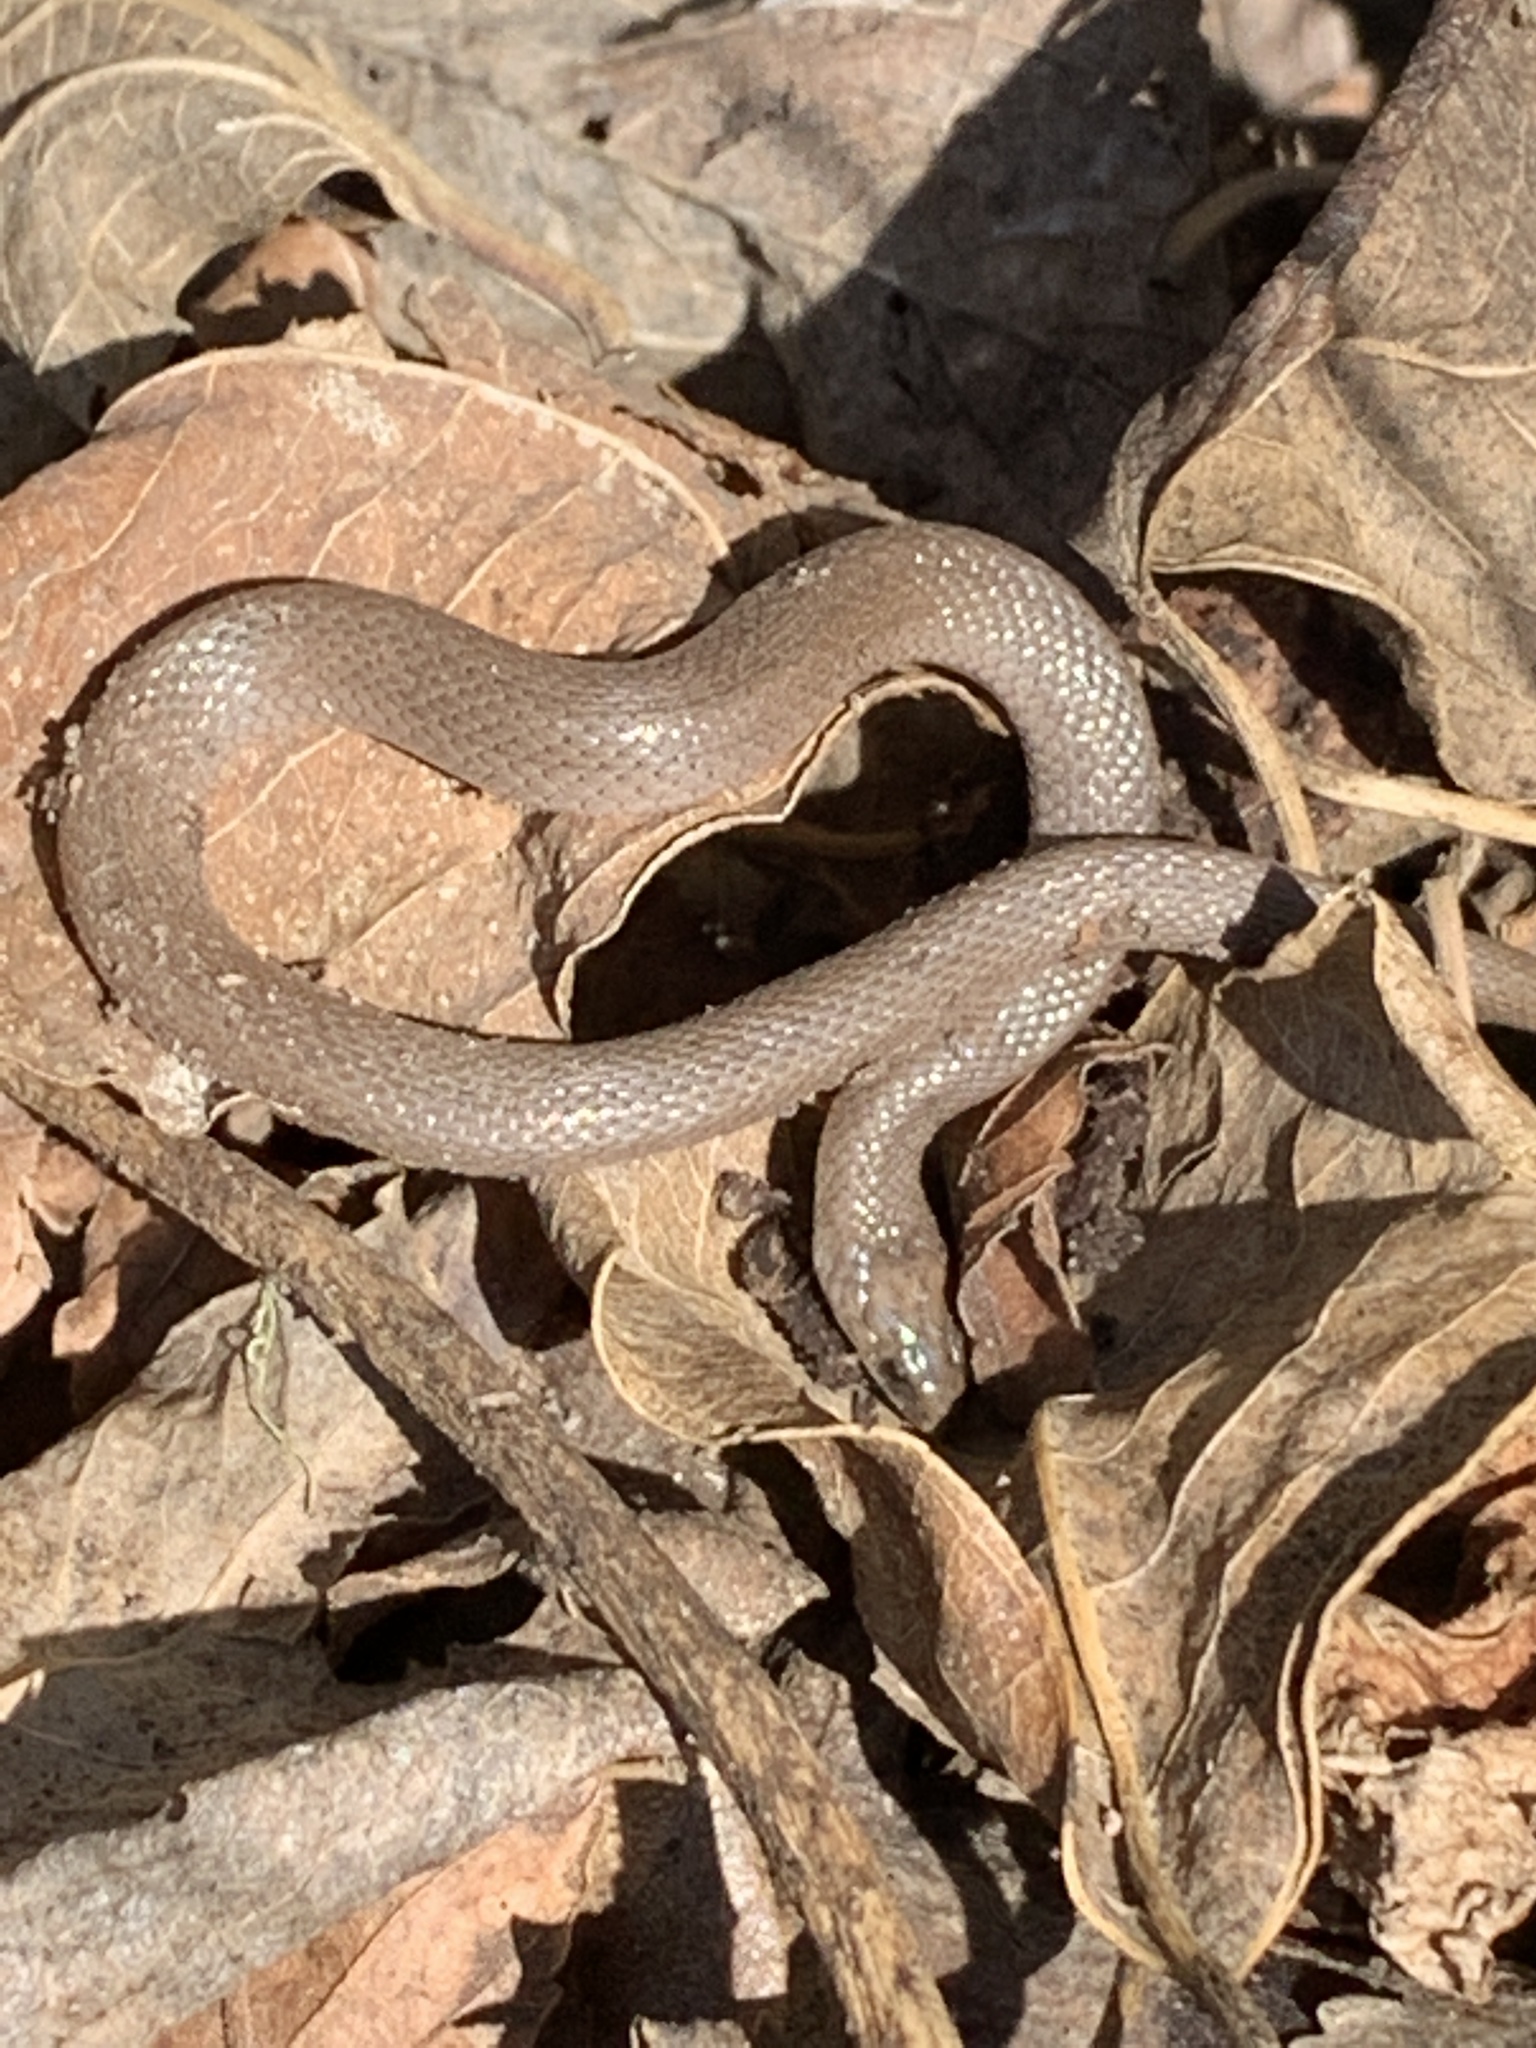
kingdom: Animalia
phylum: Chordata
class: Squamata
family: Colubridae
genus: Haldea
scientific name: Haldea striatula
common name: Rough earth snake
